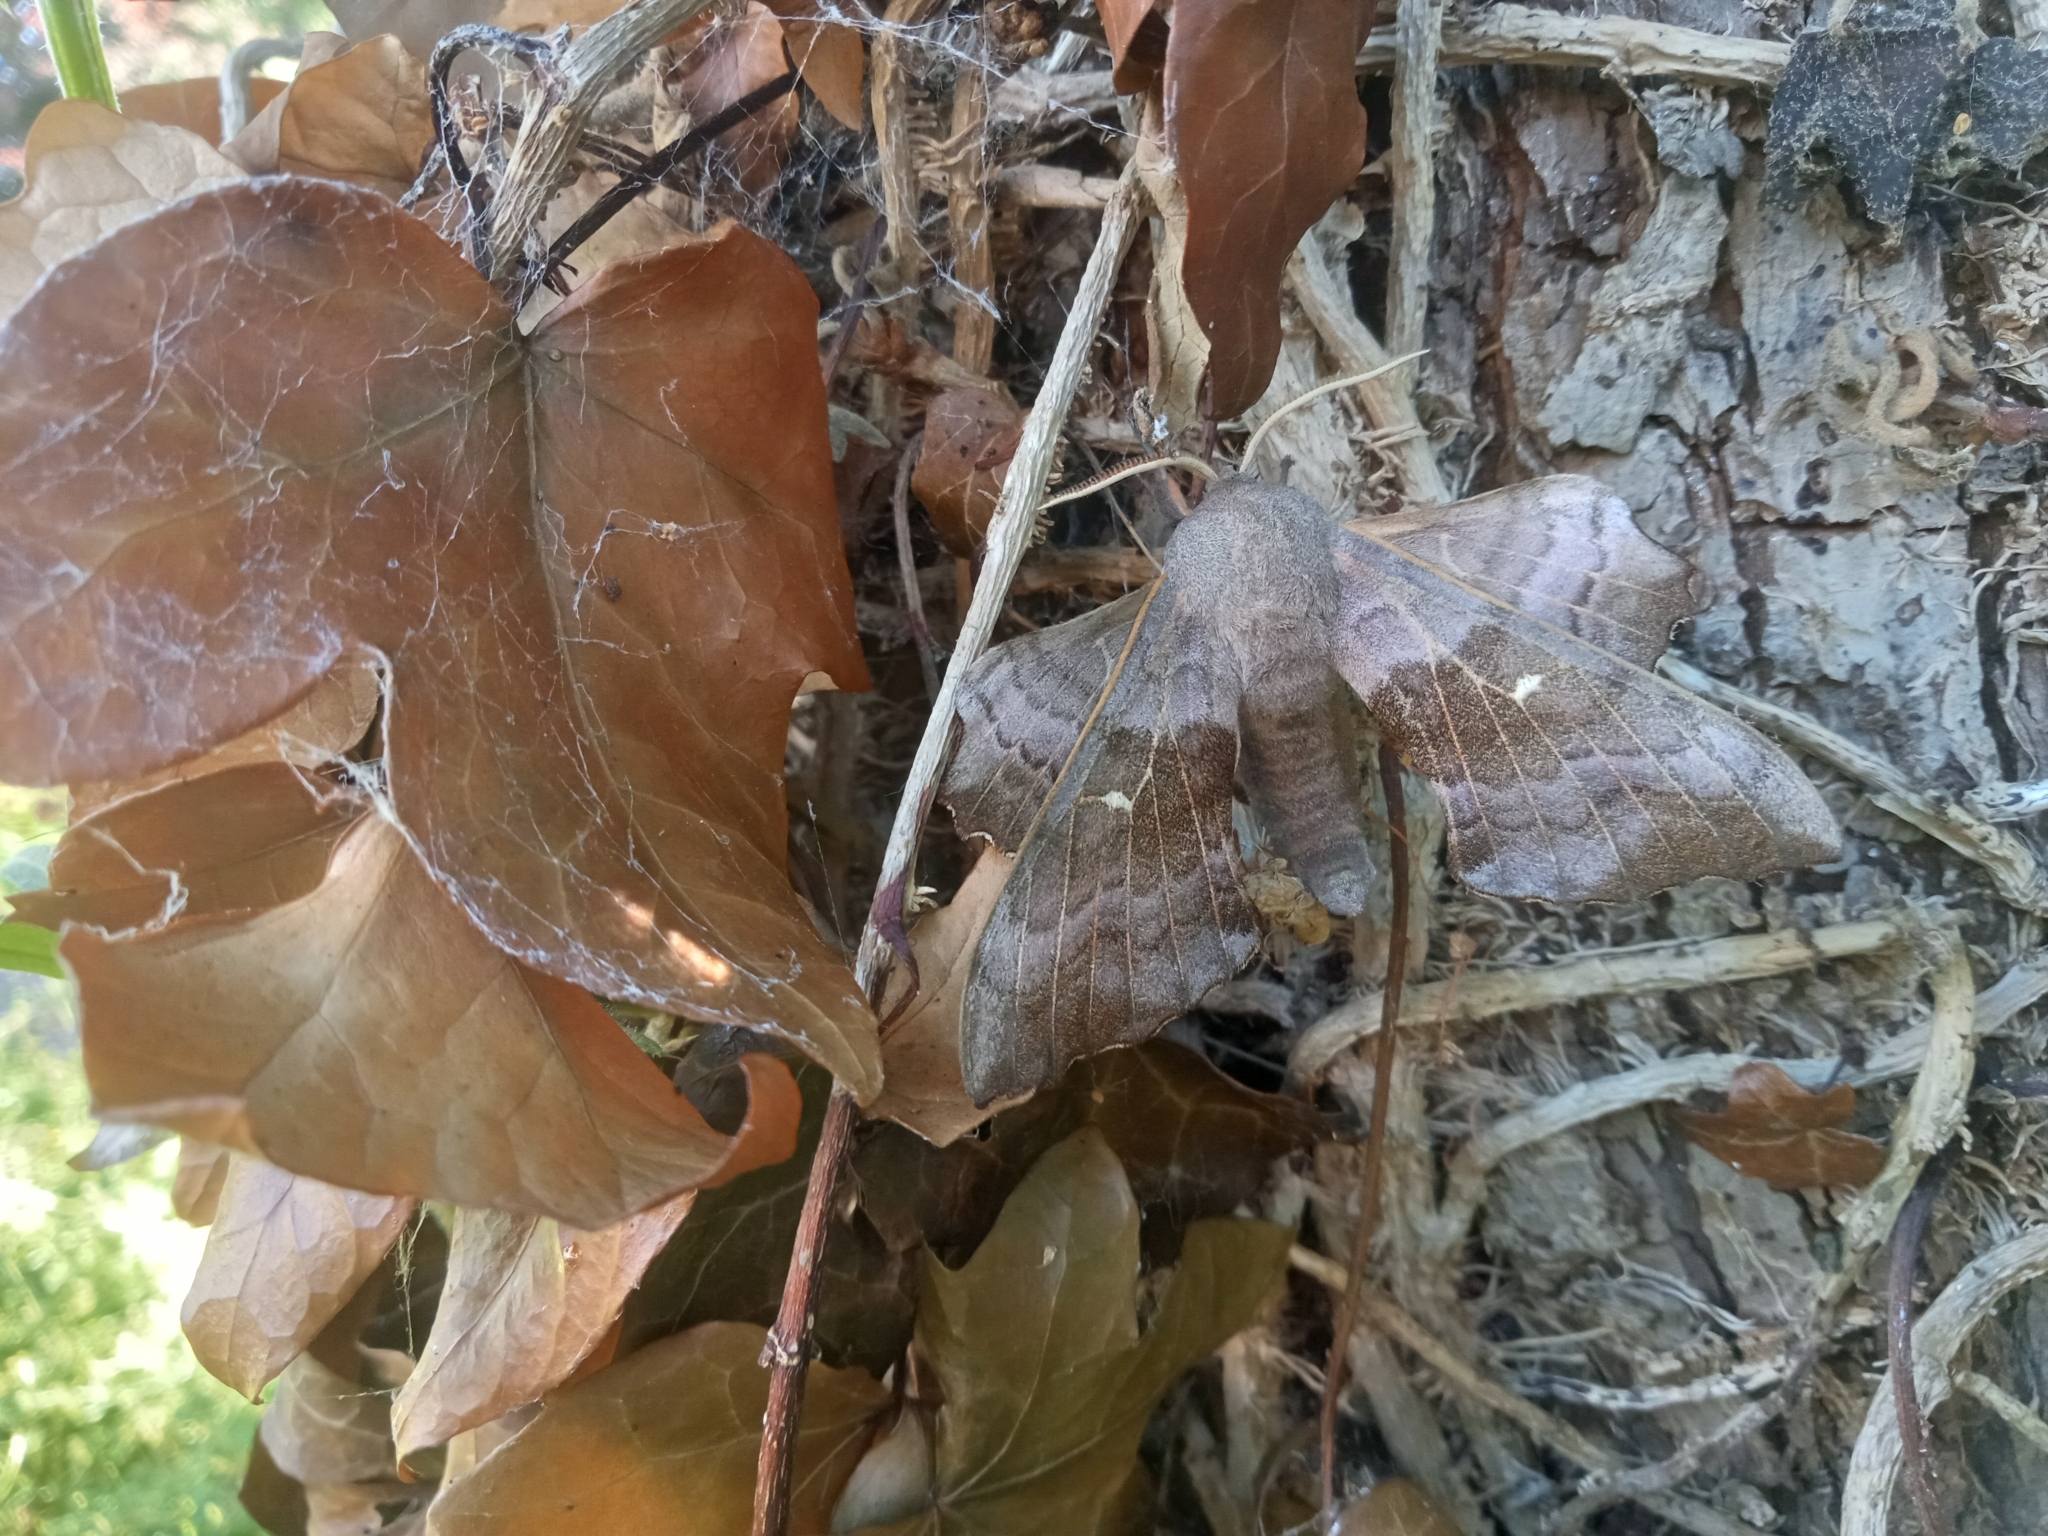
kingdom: Animalia
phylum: Arthropoda
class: Insecta
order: Lepidoptera
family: Sphingidae
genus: Laothoe
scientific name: Laothoe populi
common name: Poplar hawk-moth
